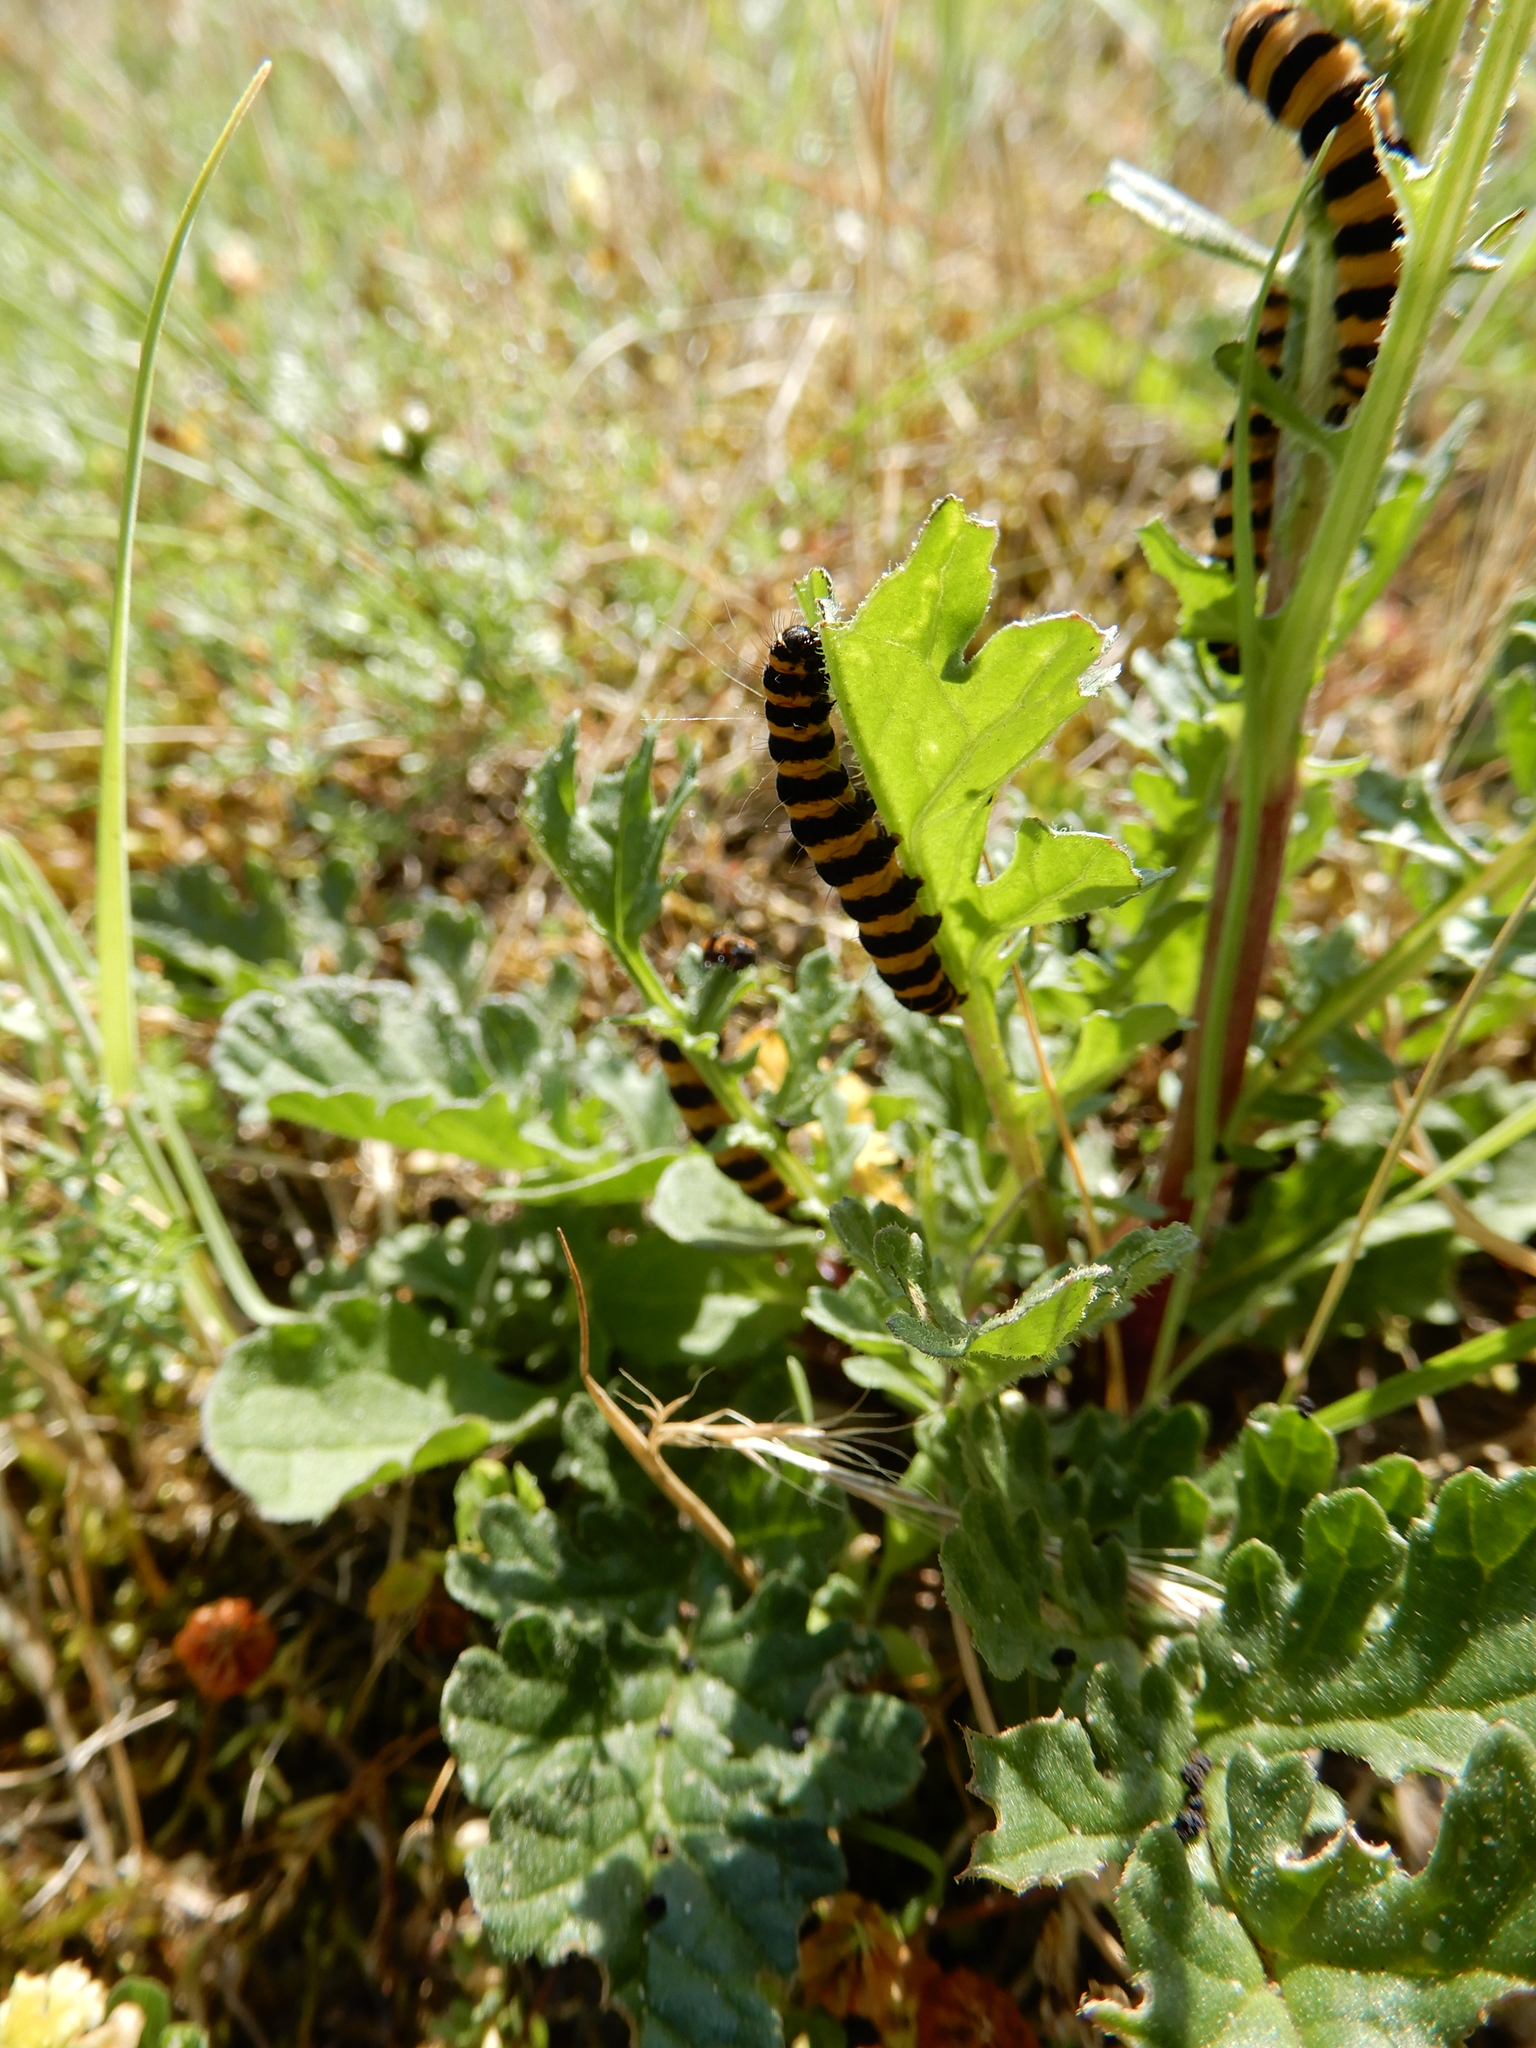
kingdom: Animalia
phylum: Arthropoda
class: Insecta
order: Lepidoptera
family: Erebidae
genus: Tyria
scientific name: Tyria jacobaeae
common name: Cinnabar
